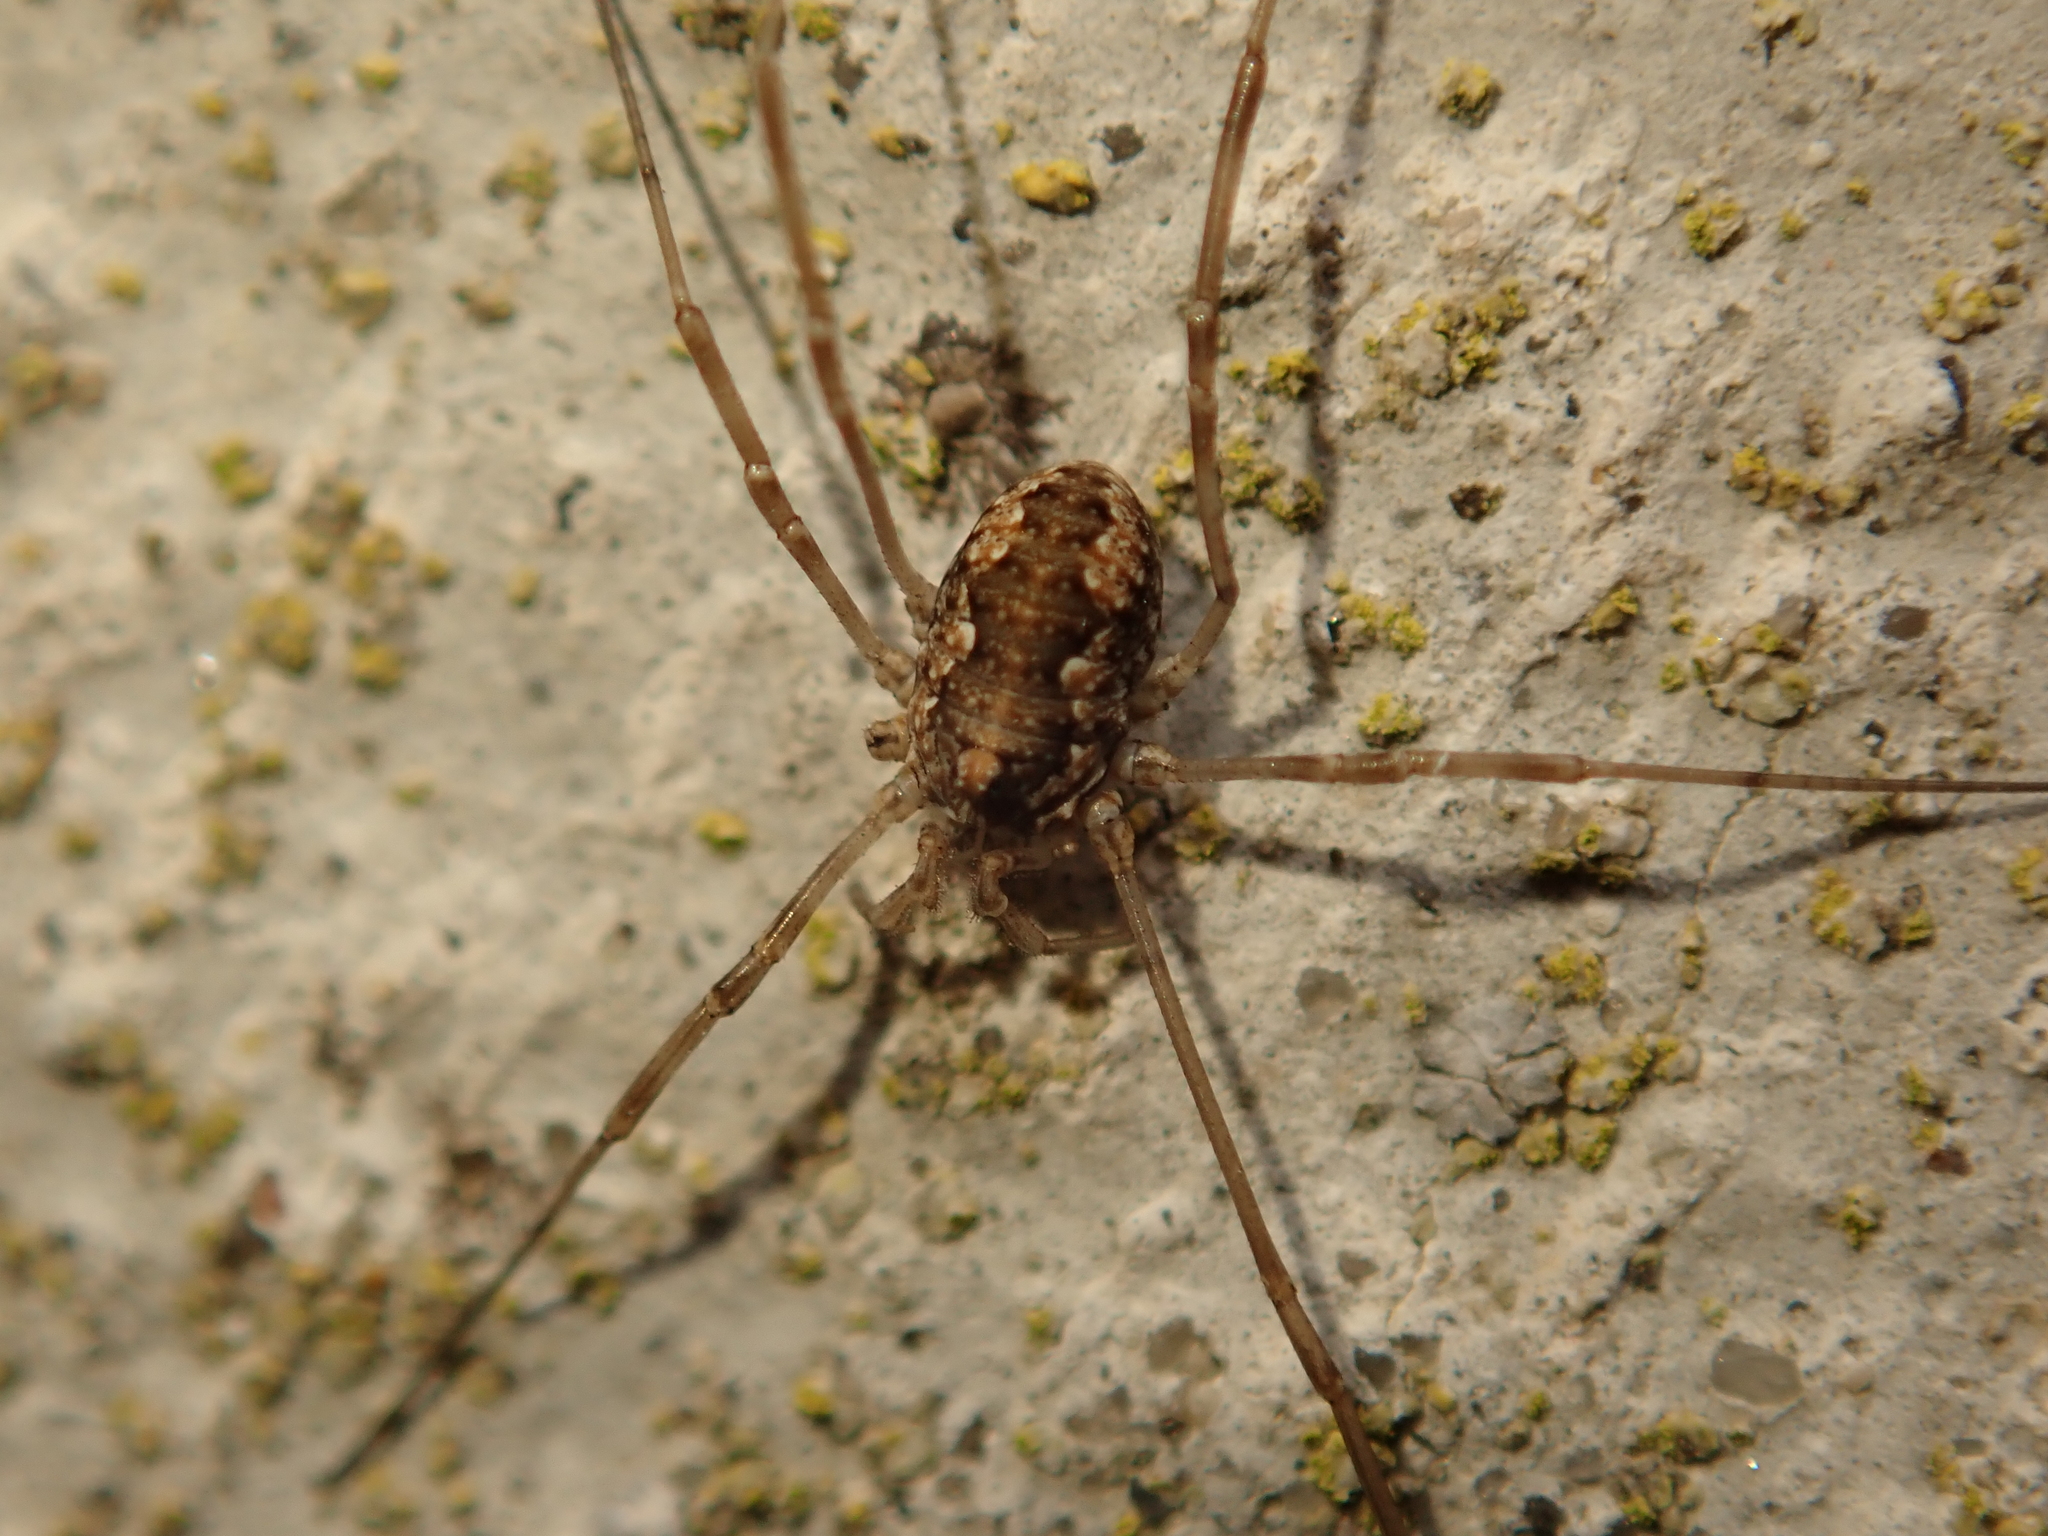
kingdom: Animalia
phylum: Arthropoda
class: Arachnida
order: Opiliones
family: Phalangiidae
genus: Phalangium
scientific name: Phalangium opilio
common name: Daddy longleg
